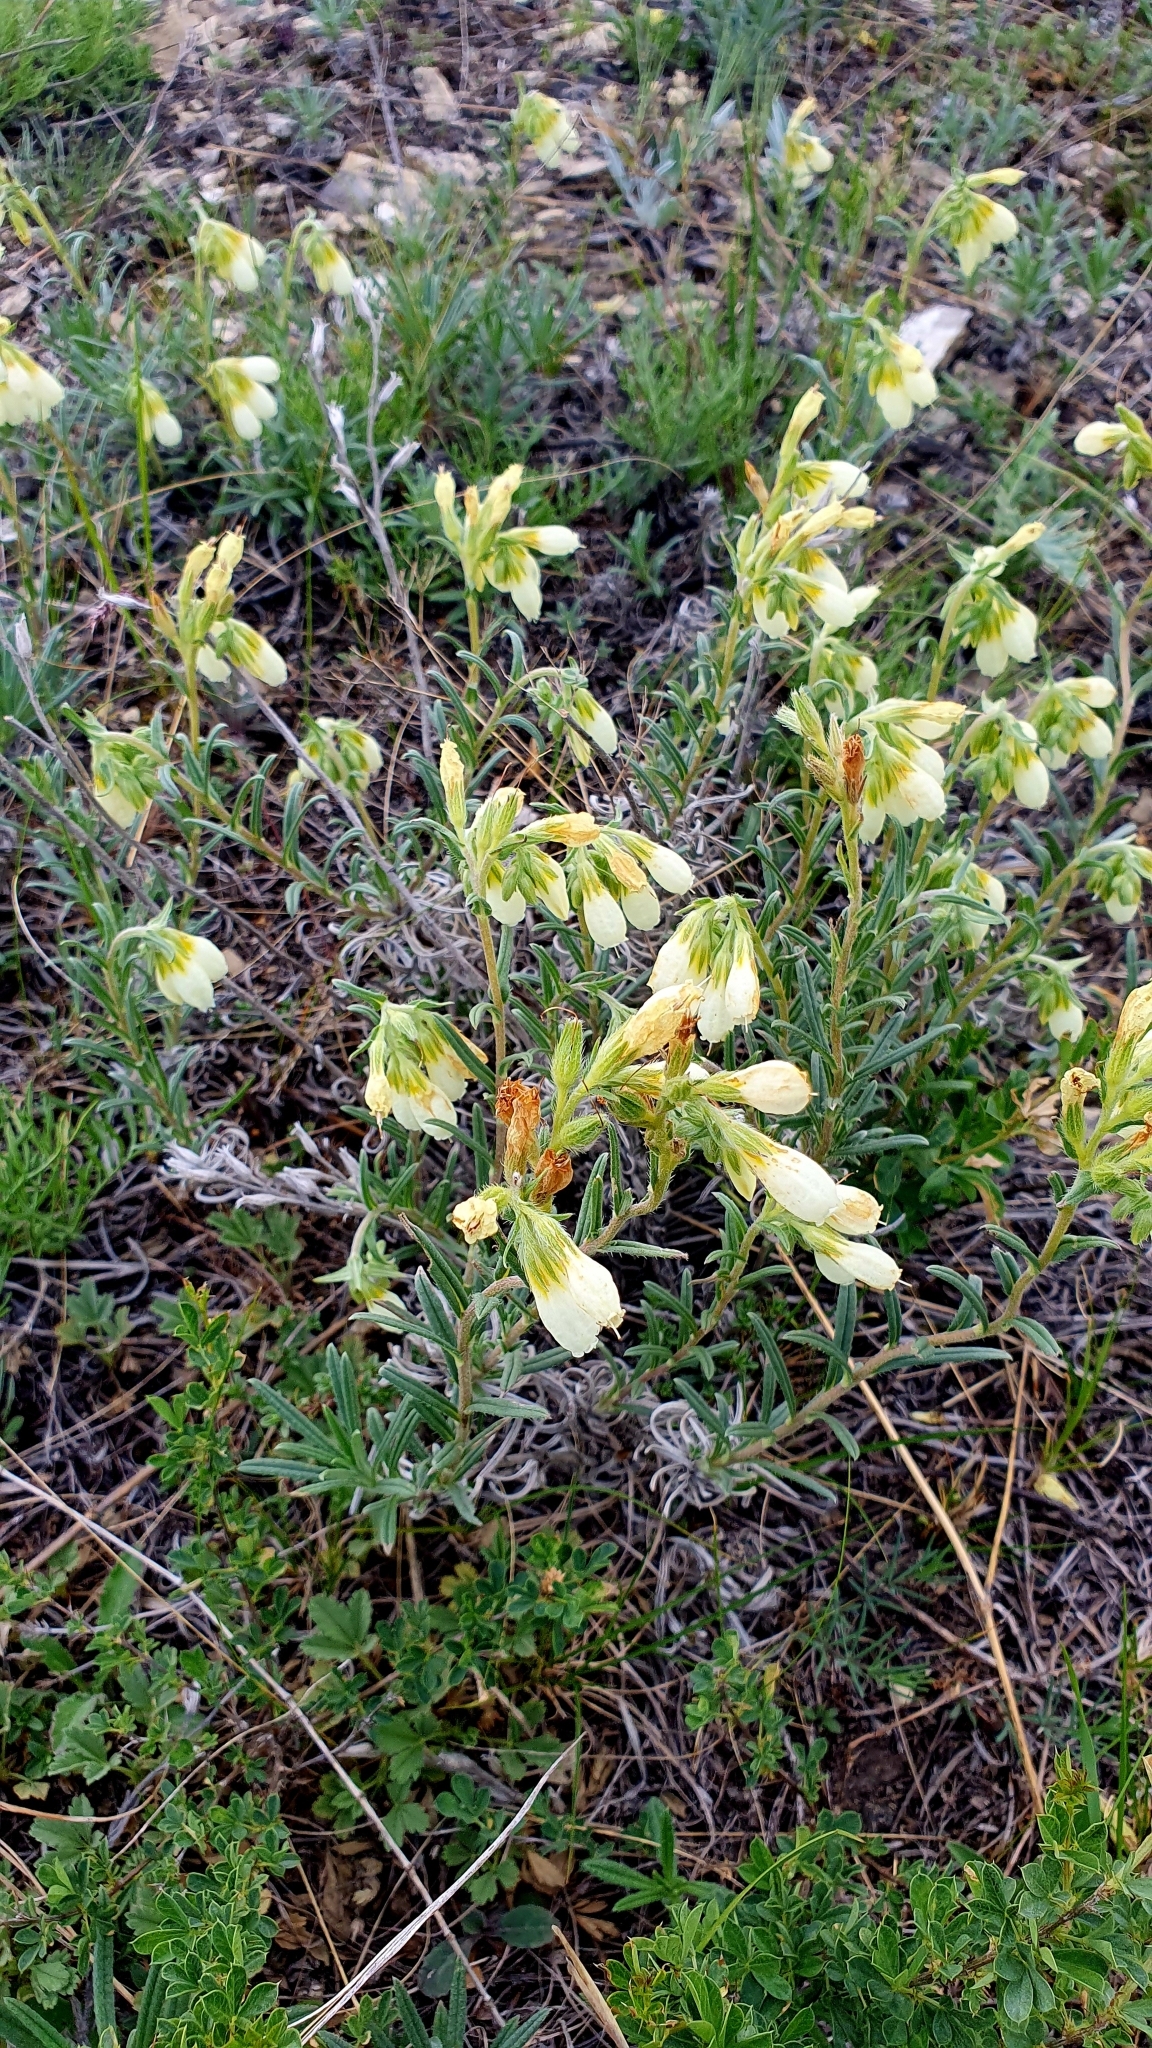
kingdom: Plantae
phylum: Tracheophyta
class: Magnoliopsida
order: Boraginales
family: Boraginaceae
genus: Onosma
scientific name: Onosma simplicissima
